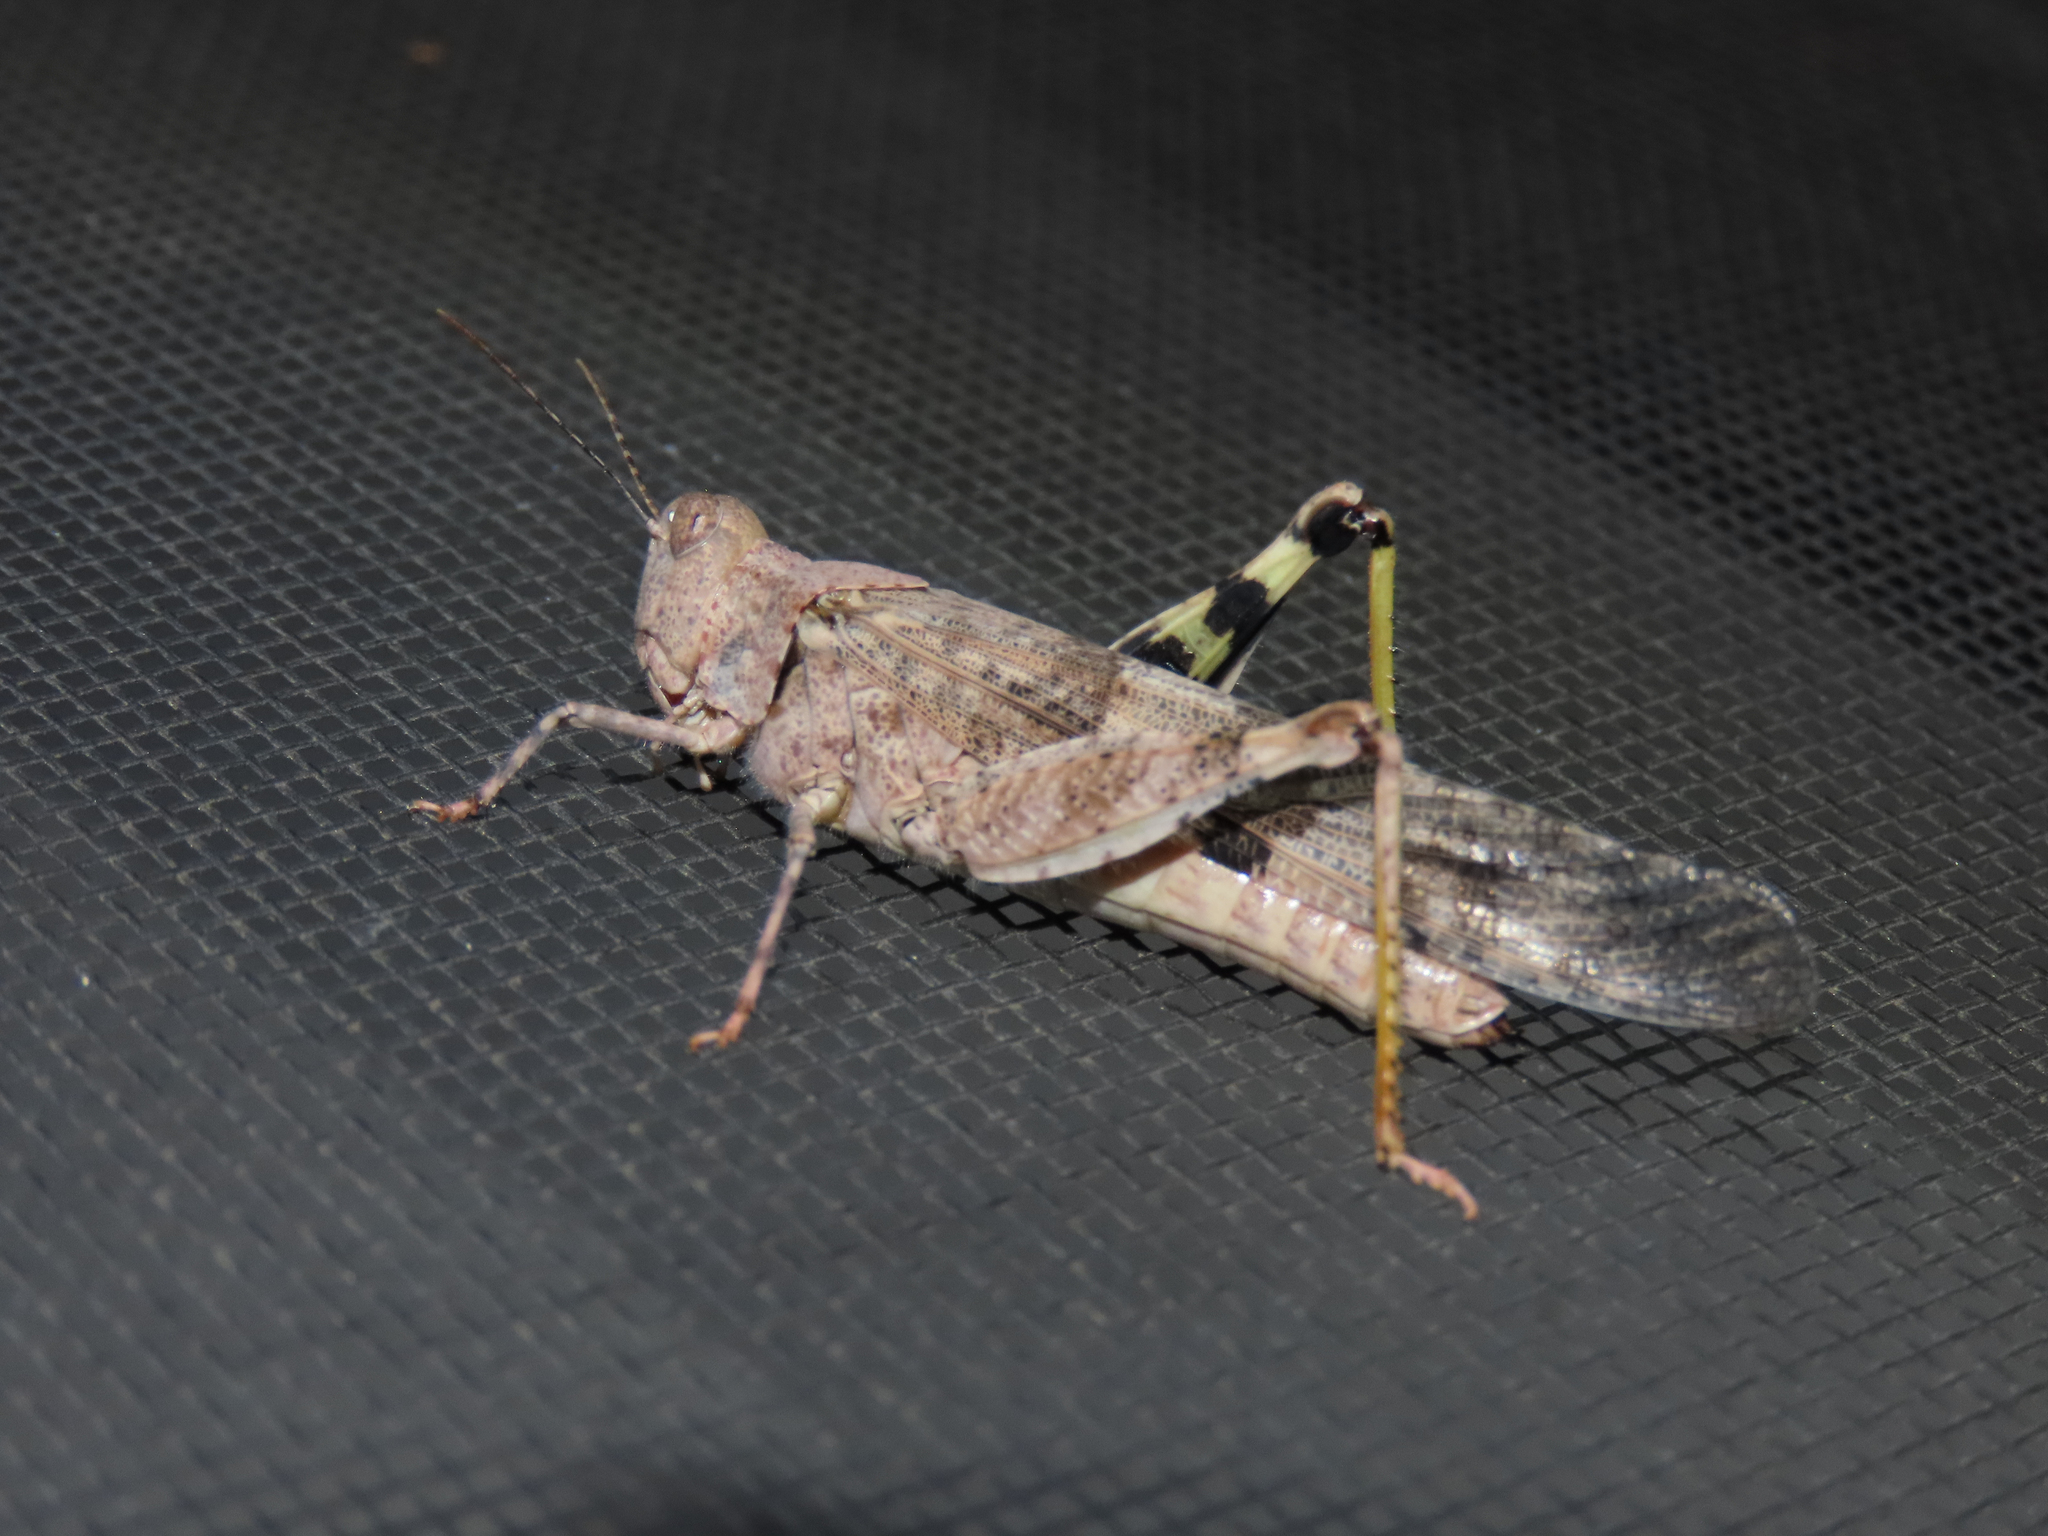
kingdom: Animalia
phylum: Arthropoda
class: Insecta
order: Orthoptera
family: Acrididae
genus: Trimerotropis
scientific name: Trimerotropis pallidipennis
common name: Pallid-winged grasshopper
